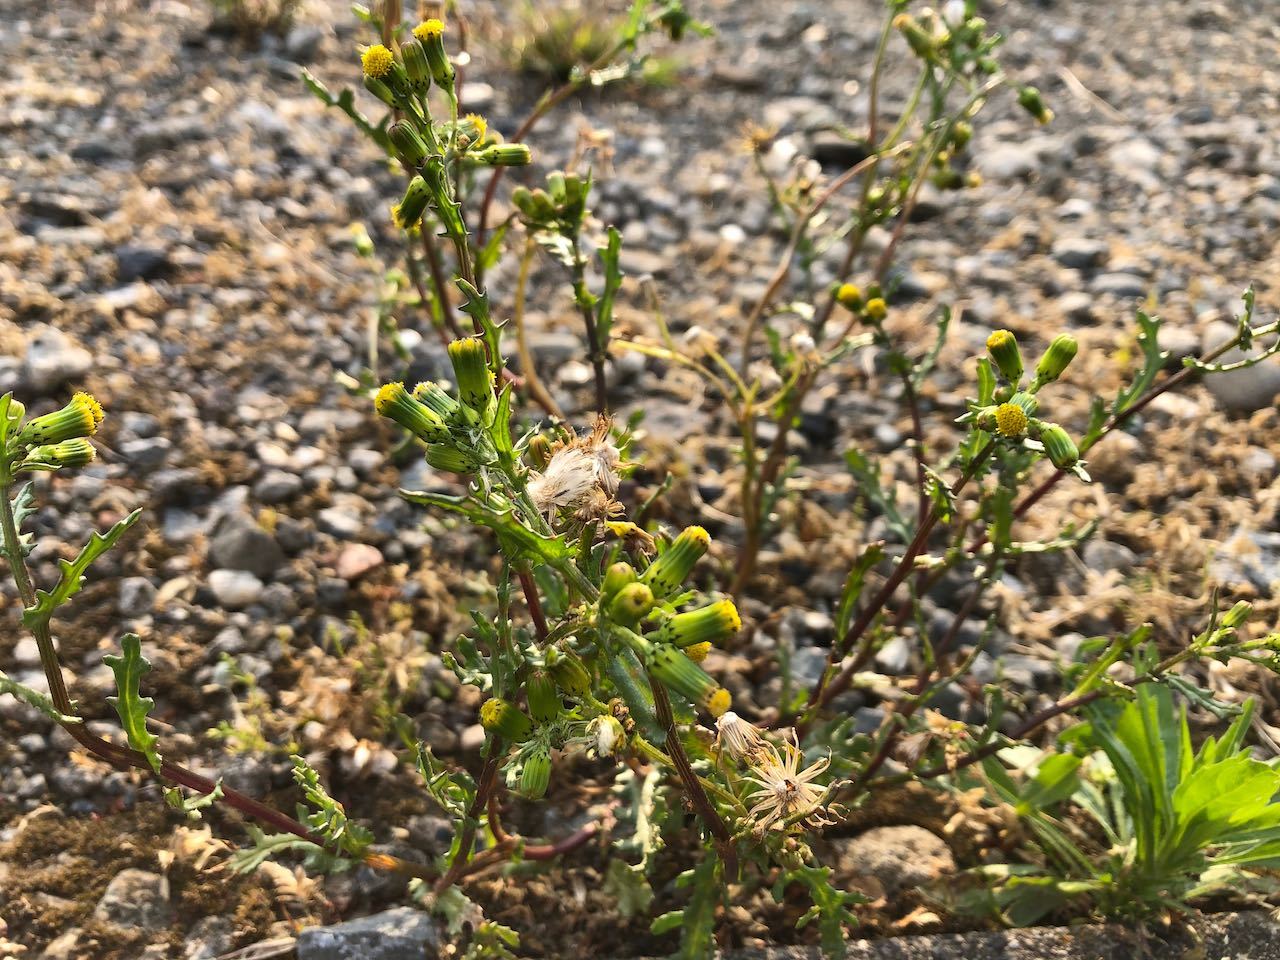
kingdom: Plantae
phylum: Tracheophyta
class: Magnoliopsida
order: Asterales
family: Asteraceae
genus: Senecio
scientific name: Senecio vulgaris
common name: Old-man-in-the-spring
